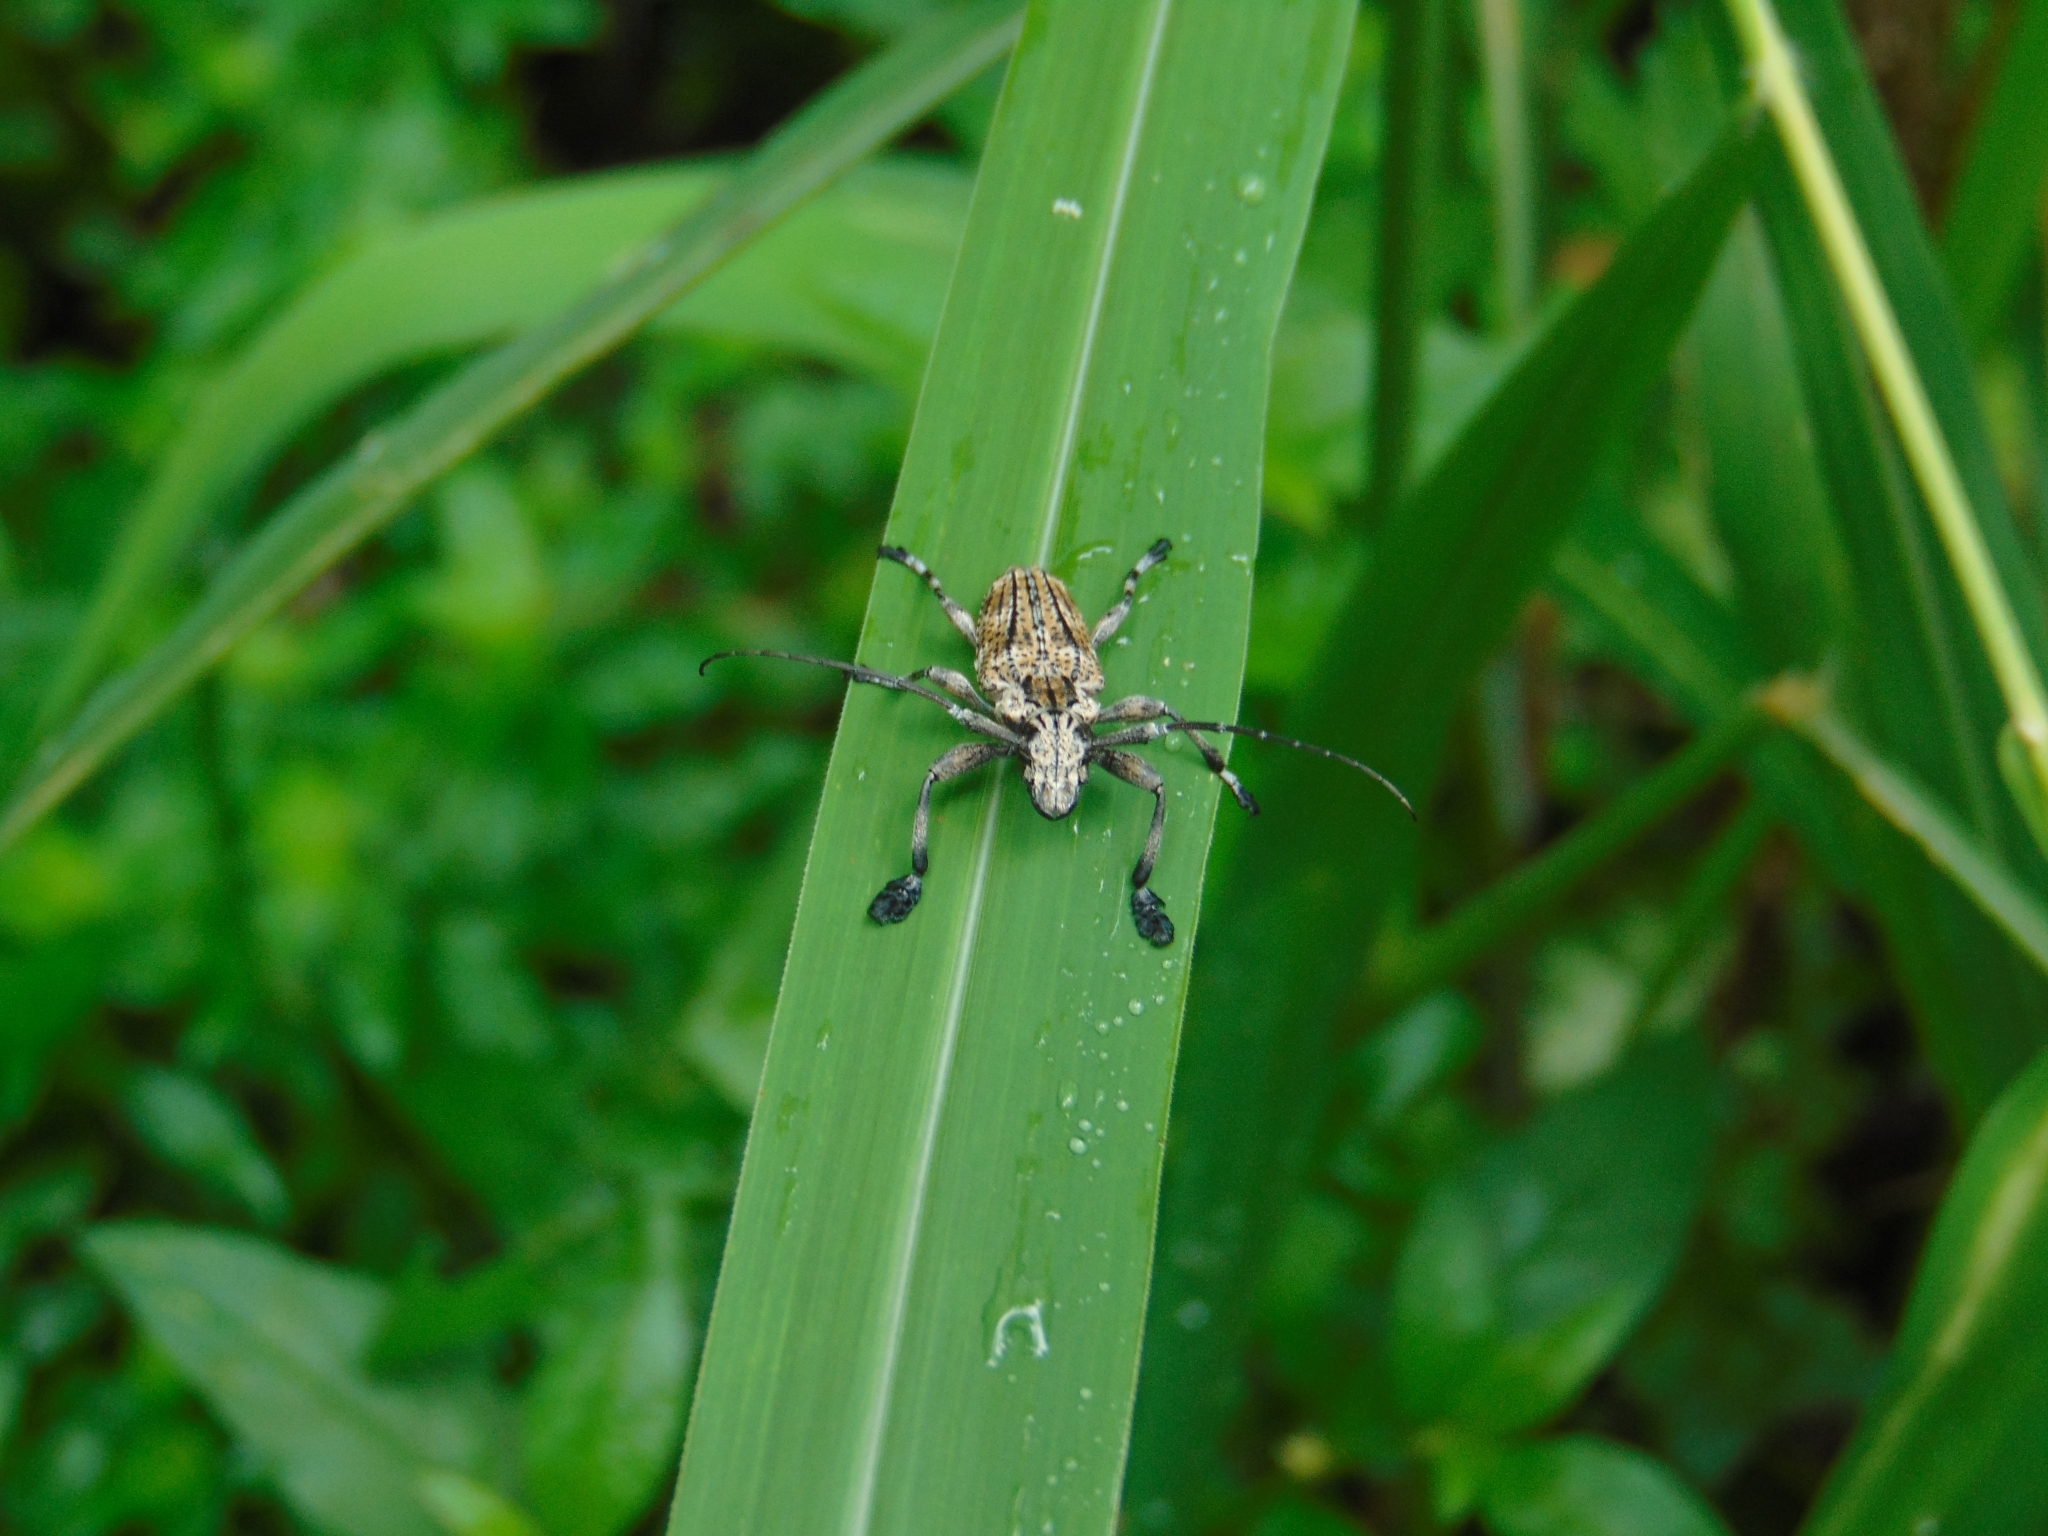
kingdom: Animalia
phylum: Arthropoda
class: Insecta
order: Coleoptera
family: Cerambycidae
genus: Steirastoma
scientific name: Steirastoma meridionale
